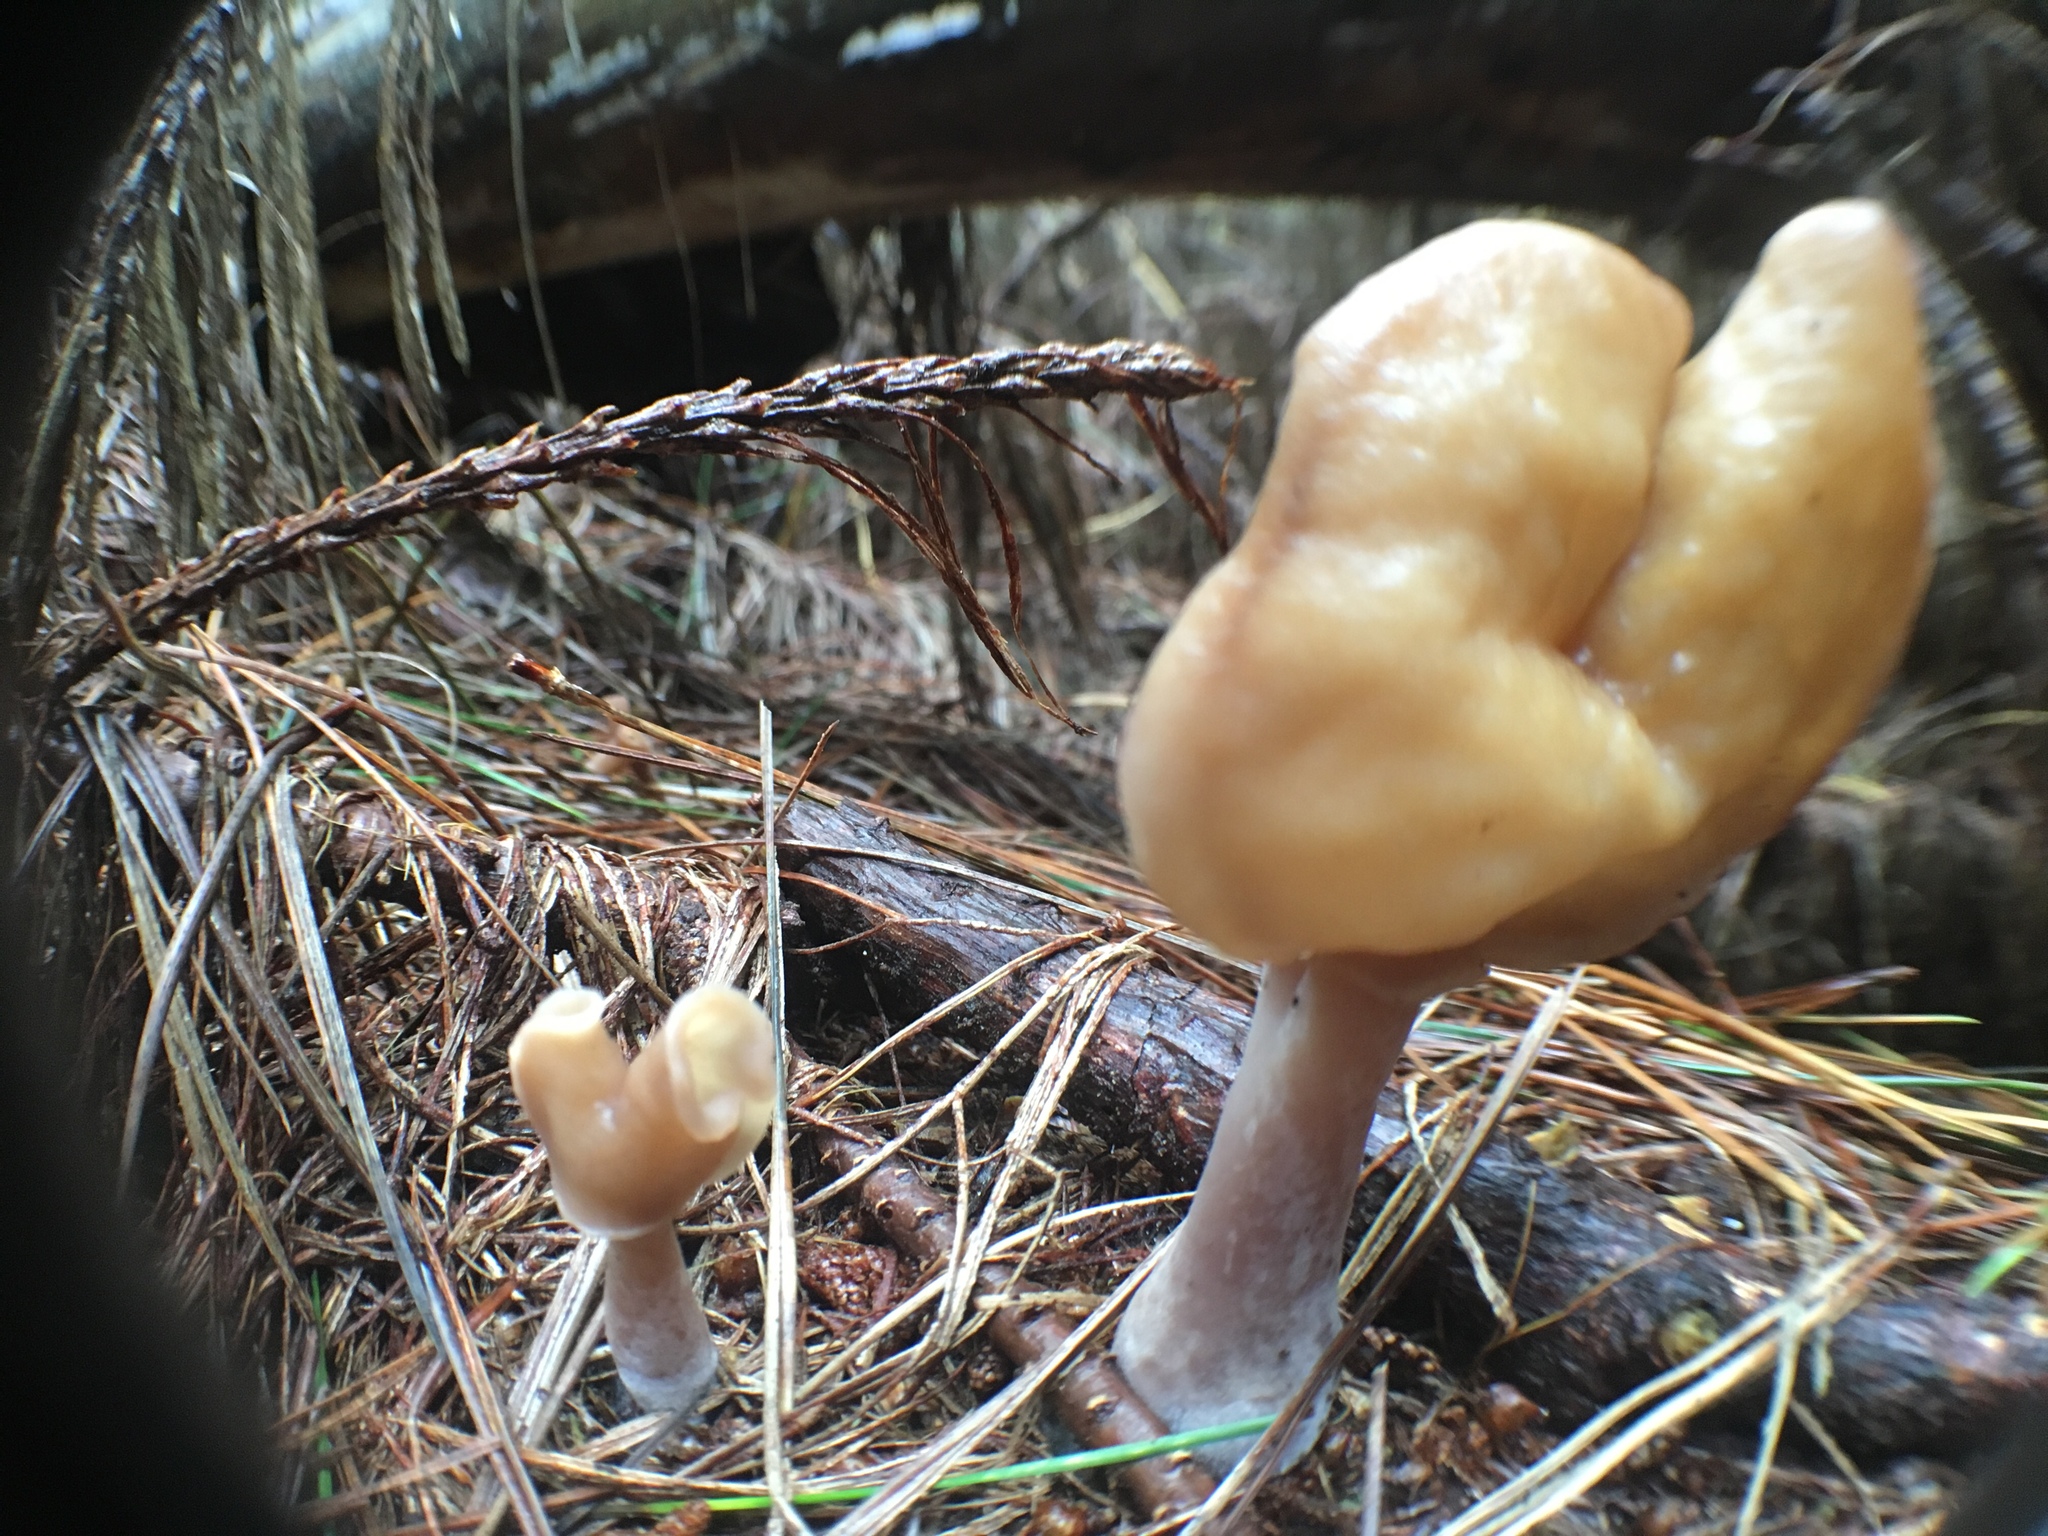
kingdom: Fungi
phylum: Ascomycota
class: Pezizomycetes
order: Pezizales
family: Discinaceae
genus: Gyromitra
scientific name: Gyromitra infula
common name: Pouched false morel
